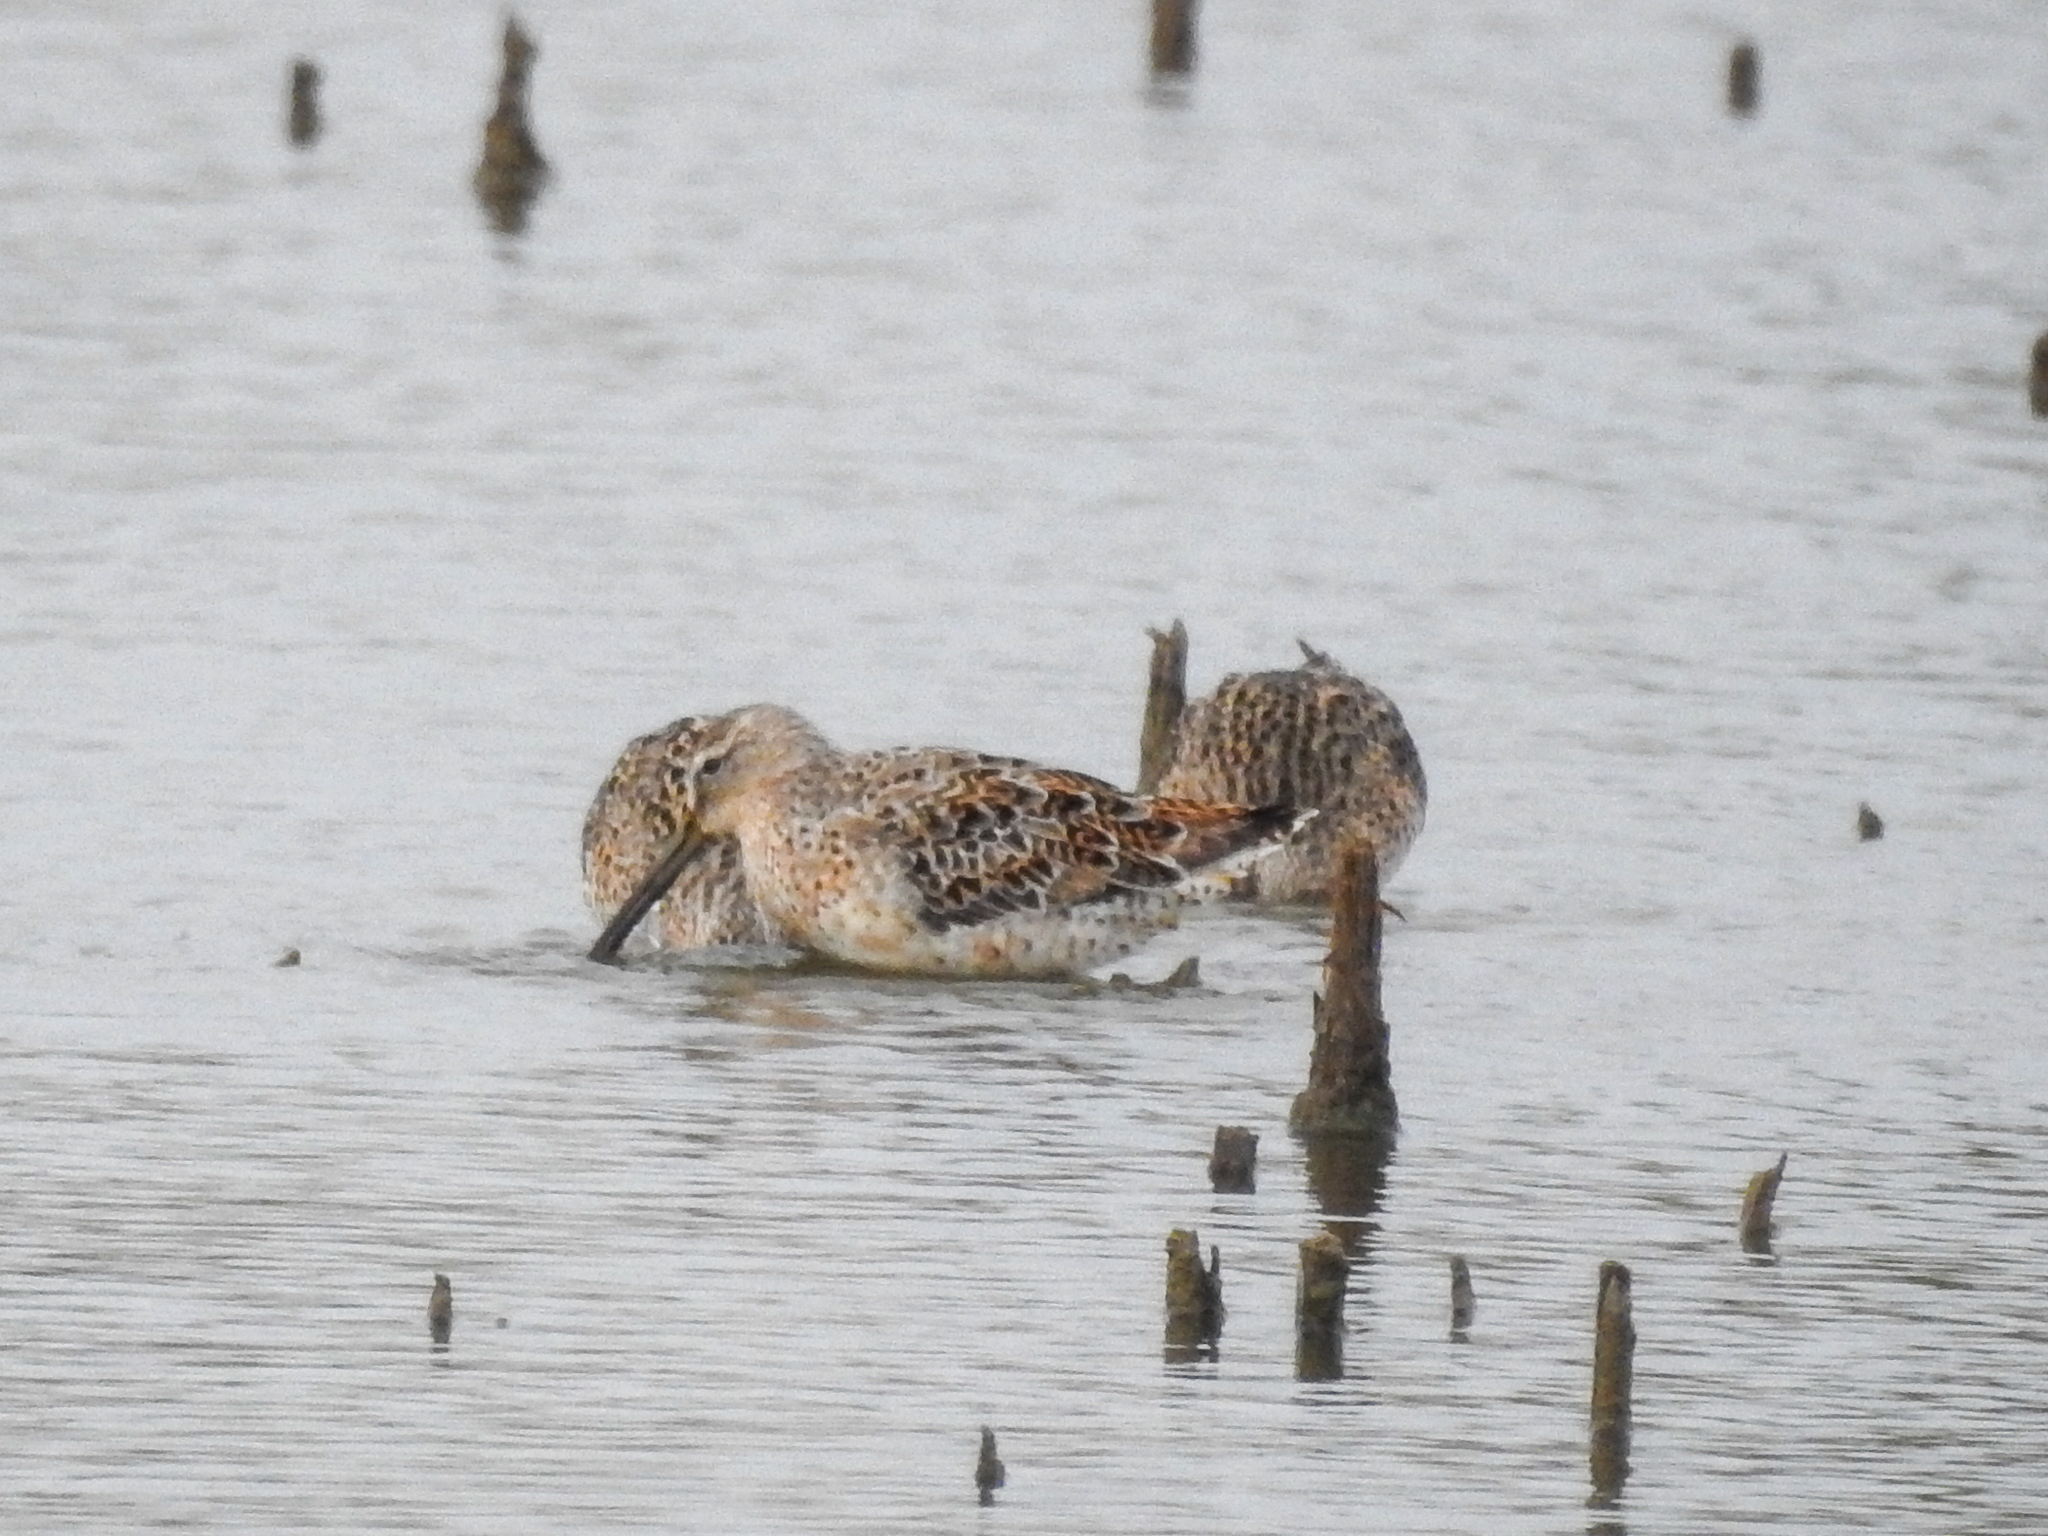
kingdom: Animalia
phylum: Chordata
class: Aves
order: Charadriiformes
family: Scolopacidae
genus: Limnodromus
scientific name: Limnodromus griseus
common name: Short-billed dowitcher
